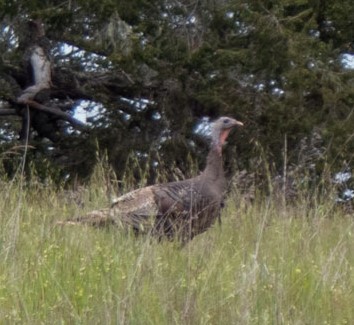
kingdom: Animalia
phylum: Chordata
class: Aves
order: Galliformes
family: Phasianidae
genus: Meleagris
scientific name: Meleagris gallopavo
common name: Wild turkey
